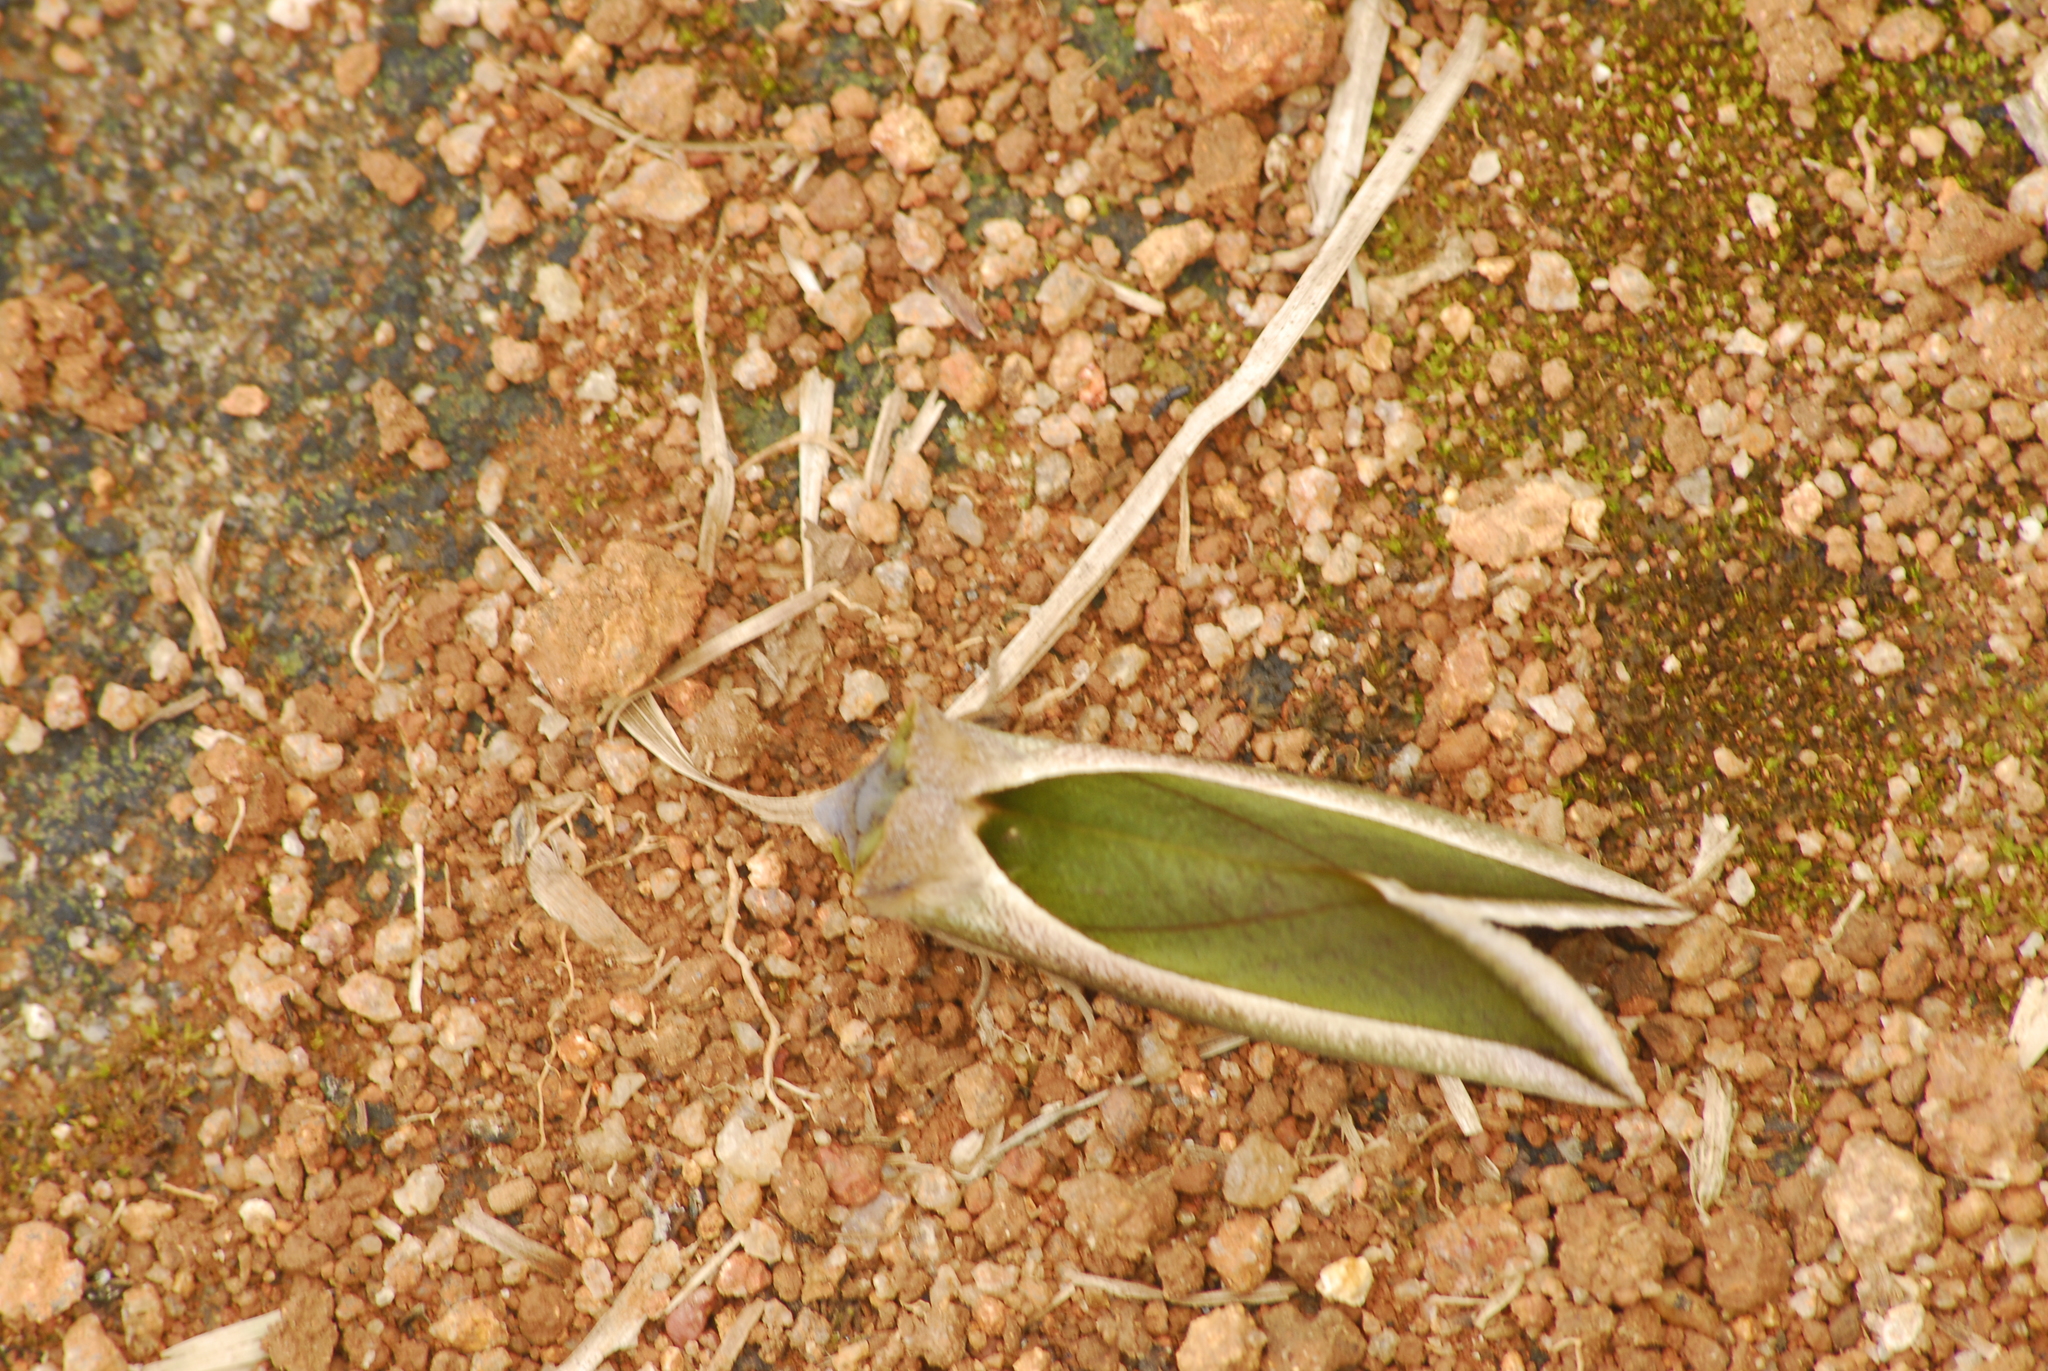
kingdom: Animalia
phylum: Arthropoda
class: Insecta
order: Lepidoptera
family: Erebidae
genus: Eudocima
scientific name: Eudocima salaminia
